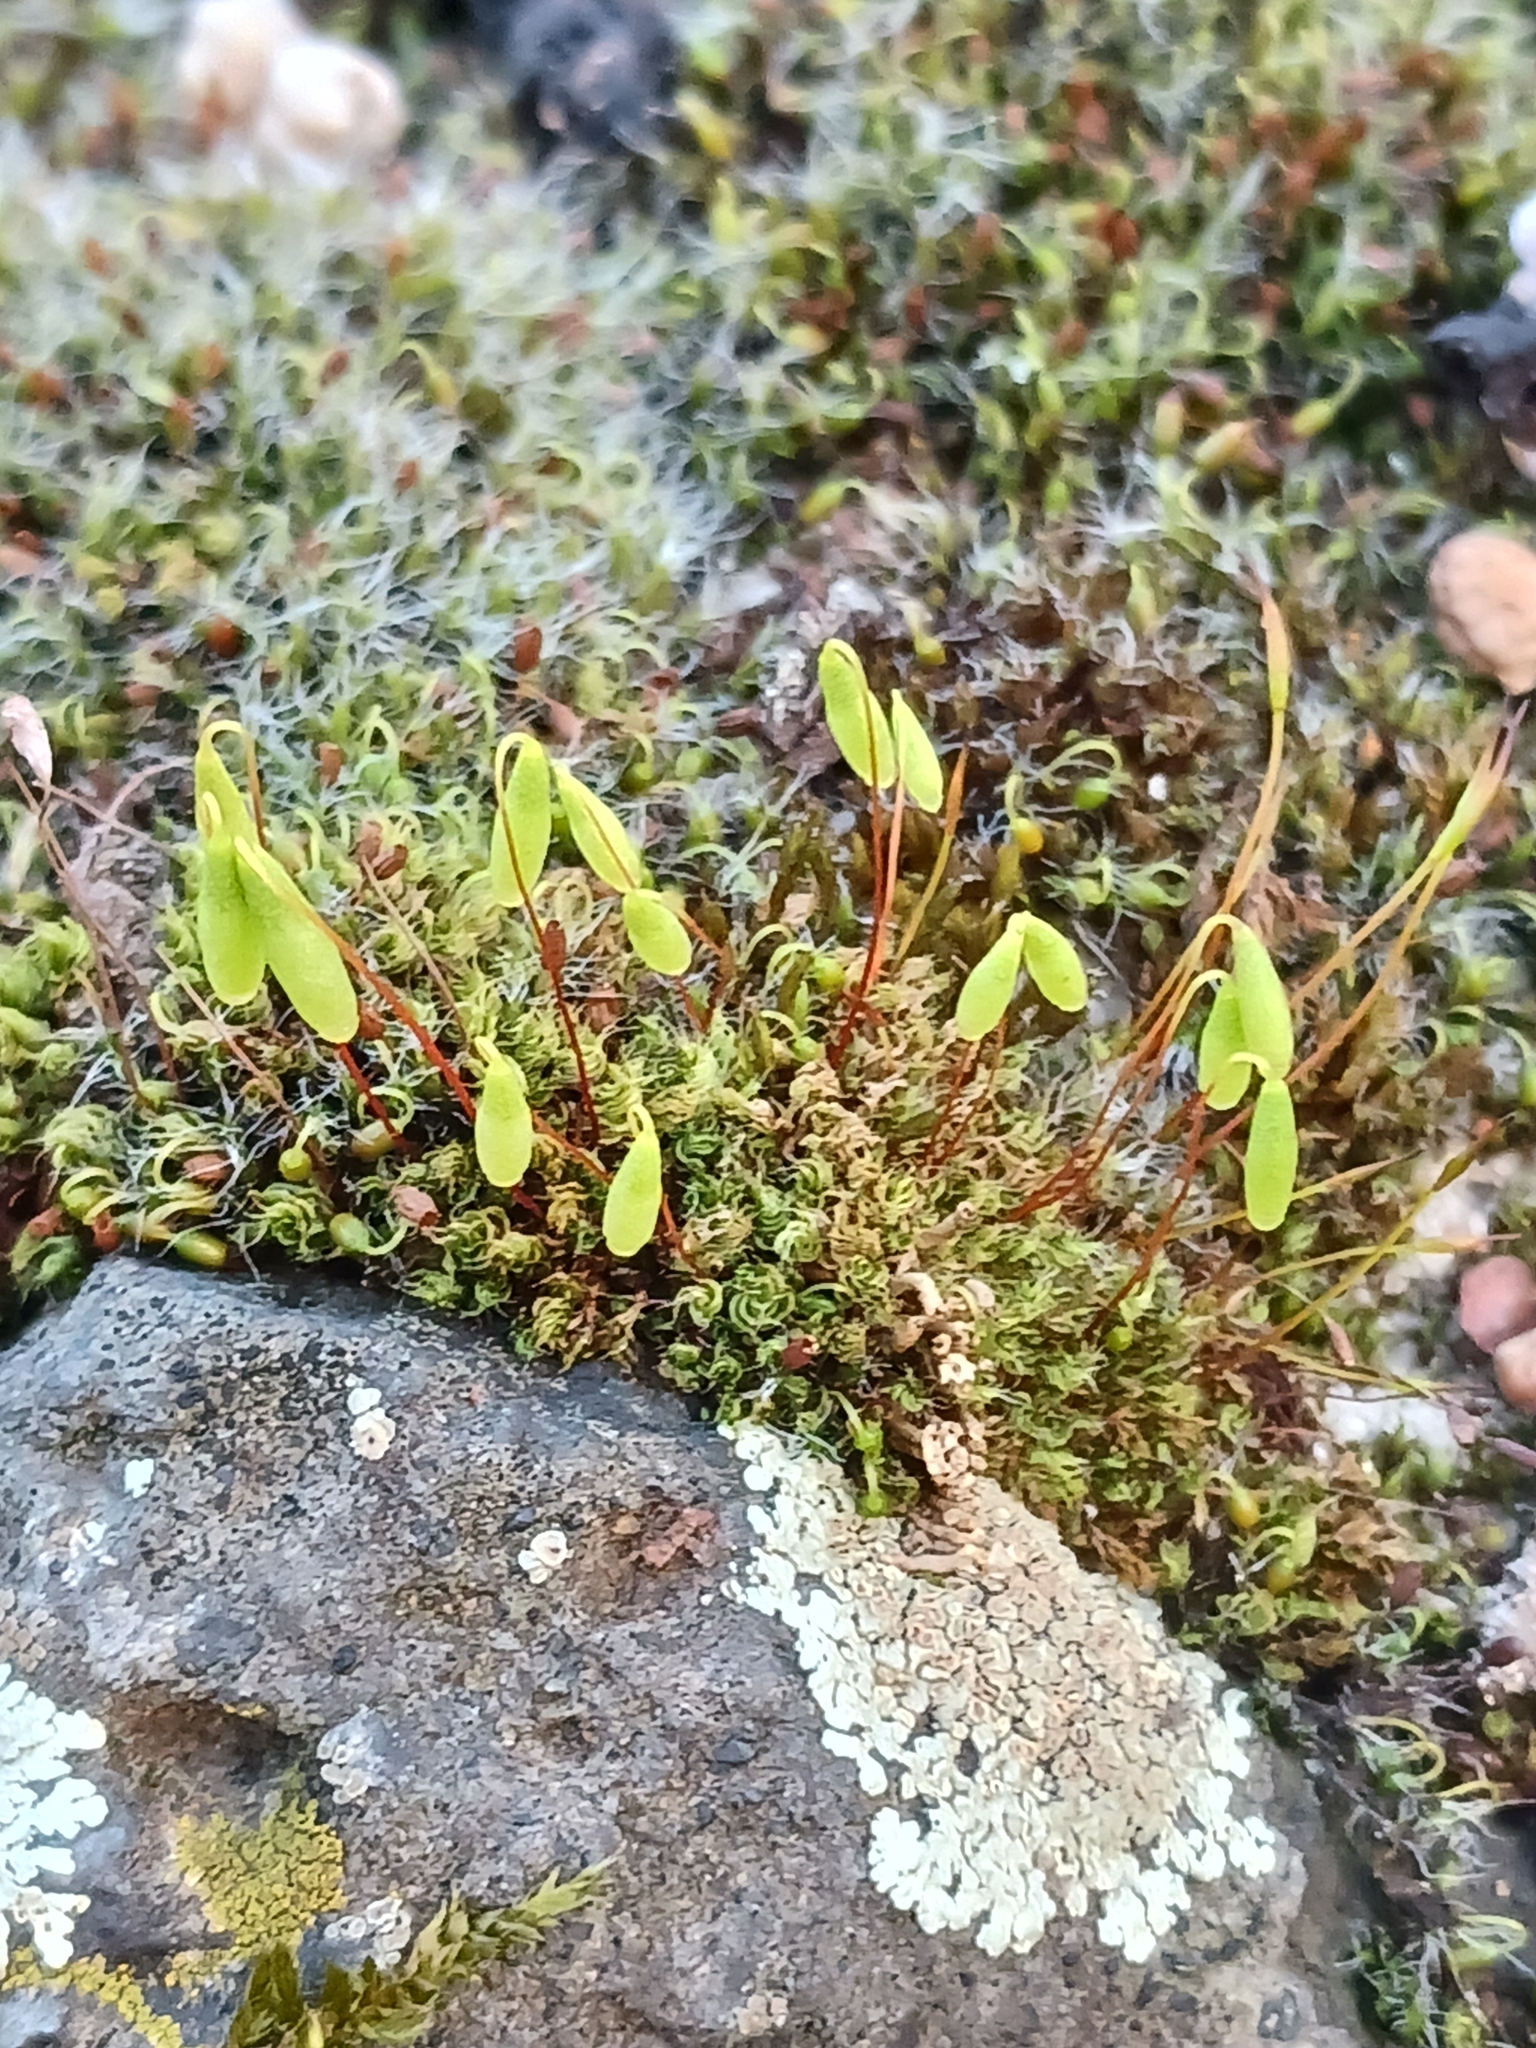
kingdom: Plantae
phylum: Bryophyta
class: Bryopsida
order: Bryales
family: Bryaceae
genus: Rosulabryum
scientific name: Rosulabryum capillare
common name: Capillary thread-moss
